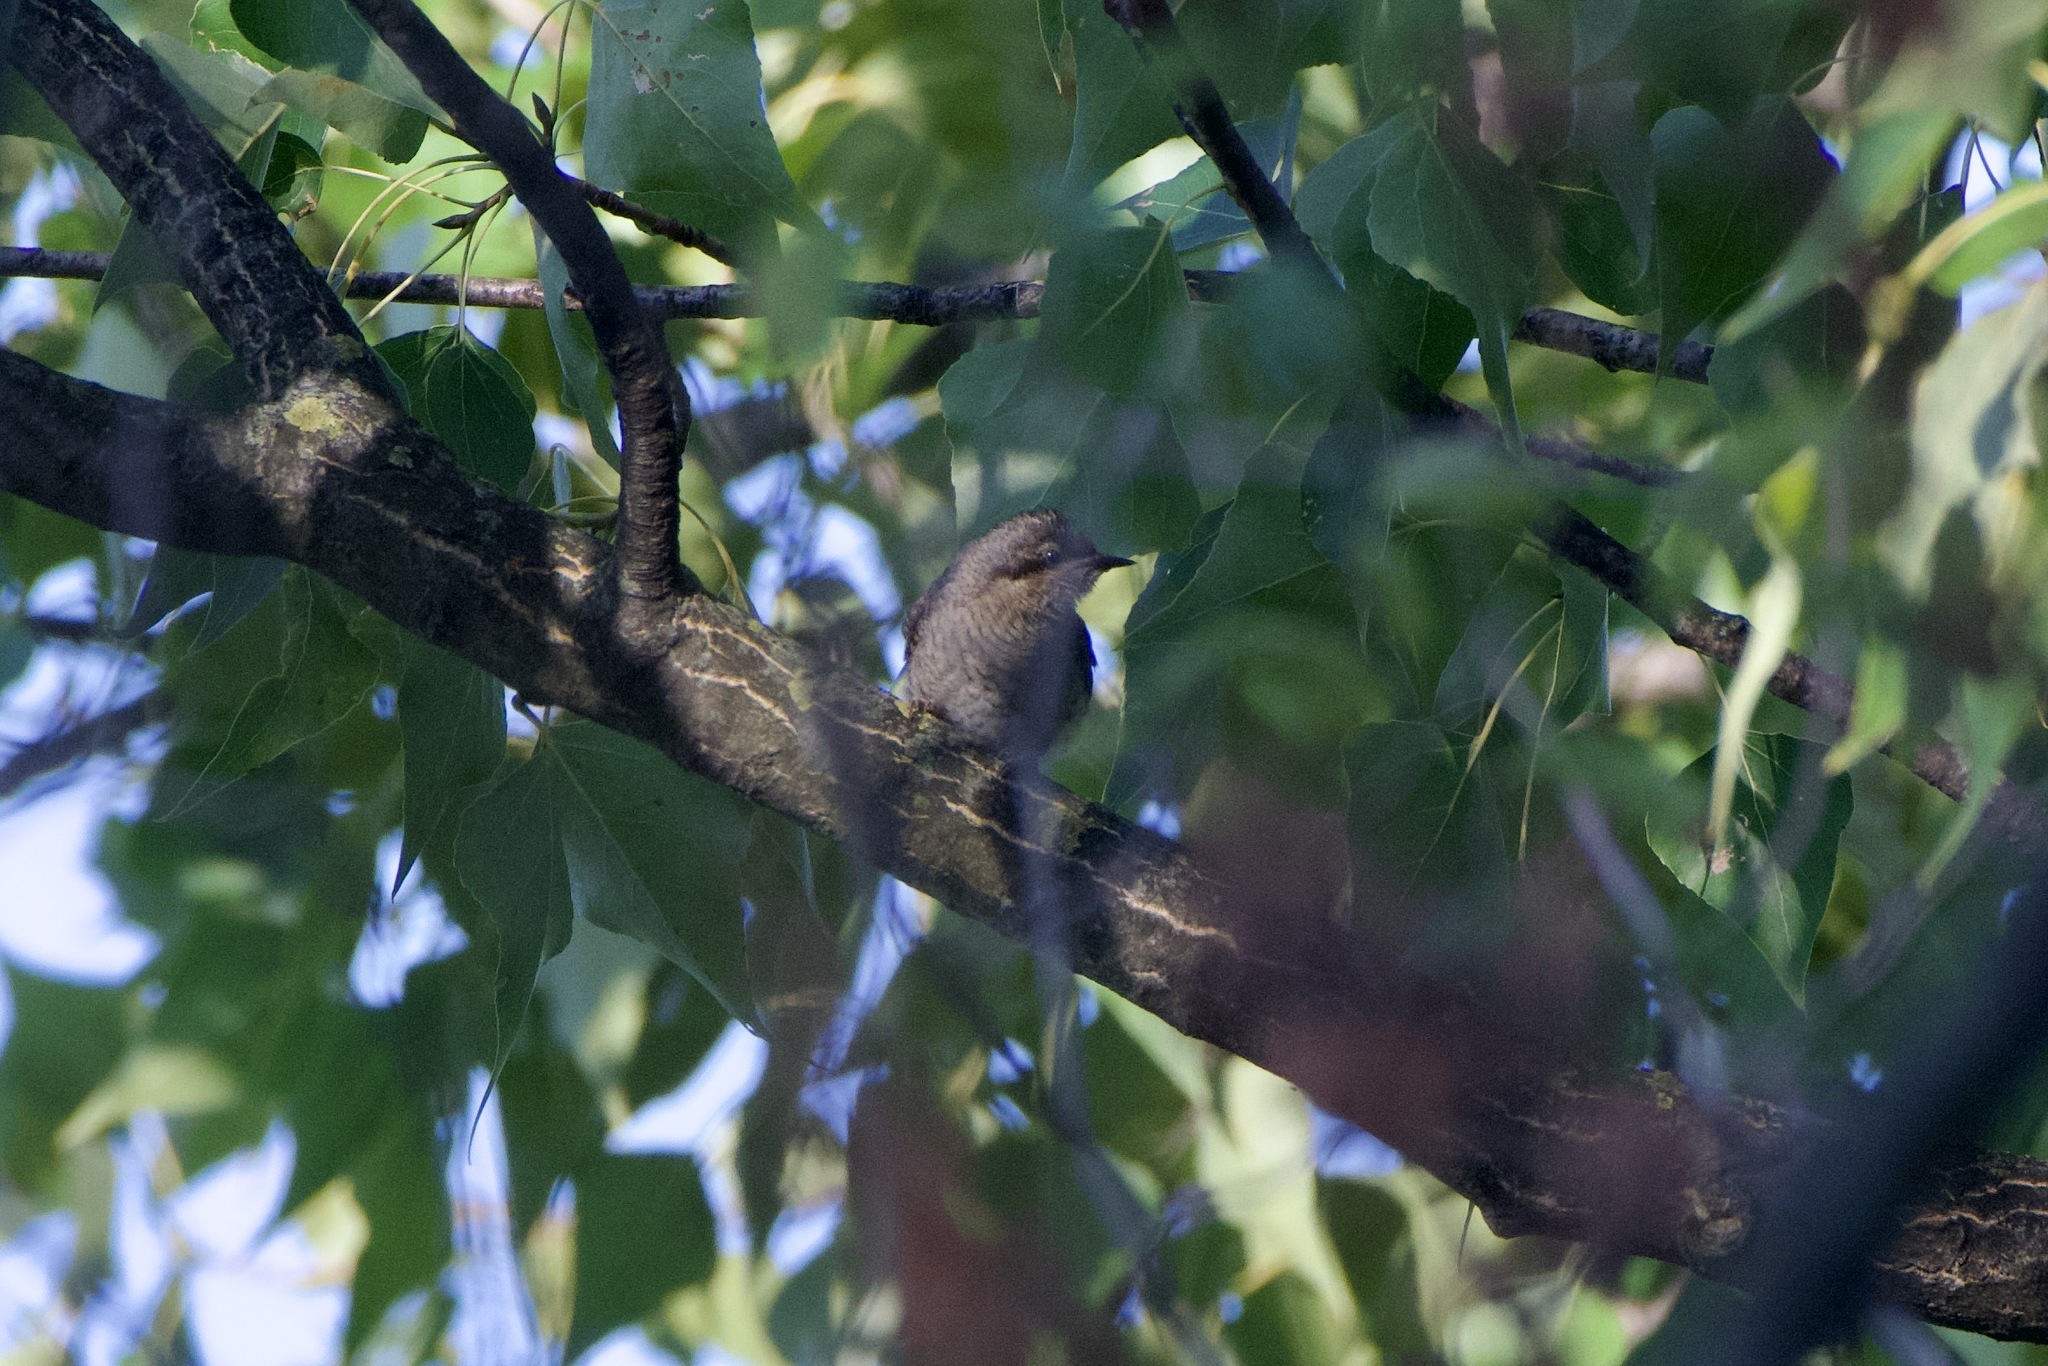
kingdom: Animalia
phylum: Chordata
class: Aves
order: Piciformes
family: Picidae
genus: Jynx
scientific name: Jynx torquilla
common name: Eurasian wryneck
